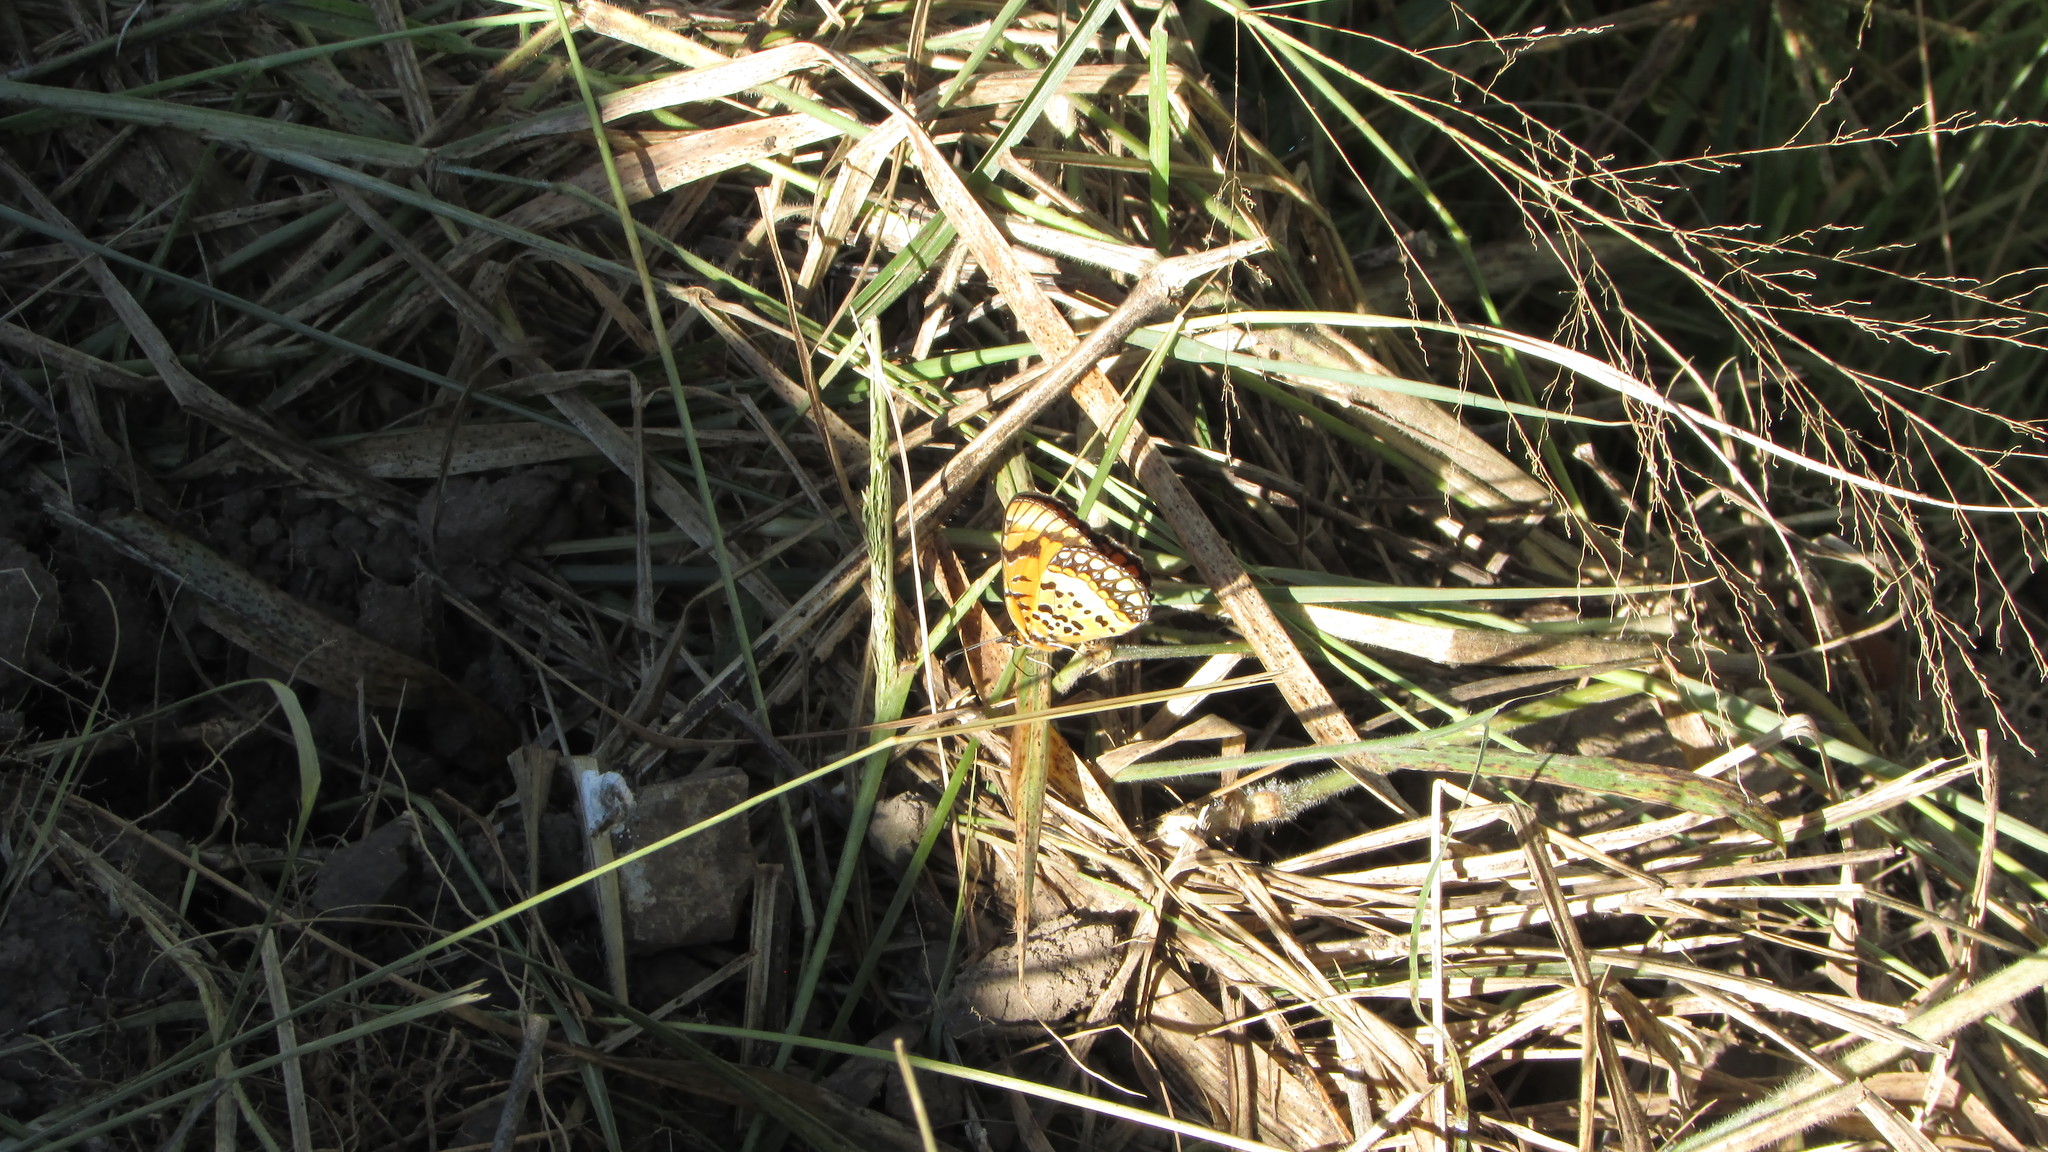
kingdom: Animalia
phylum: Arthropoda
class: Insecta
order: Lepidoptera
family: Nymphalidae
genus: Byblia
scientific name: Byblia acheloia
